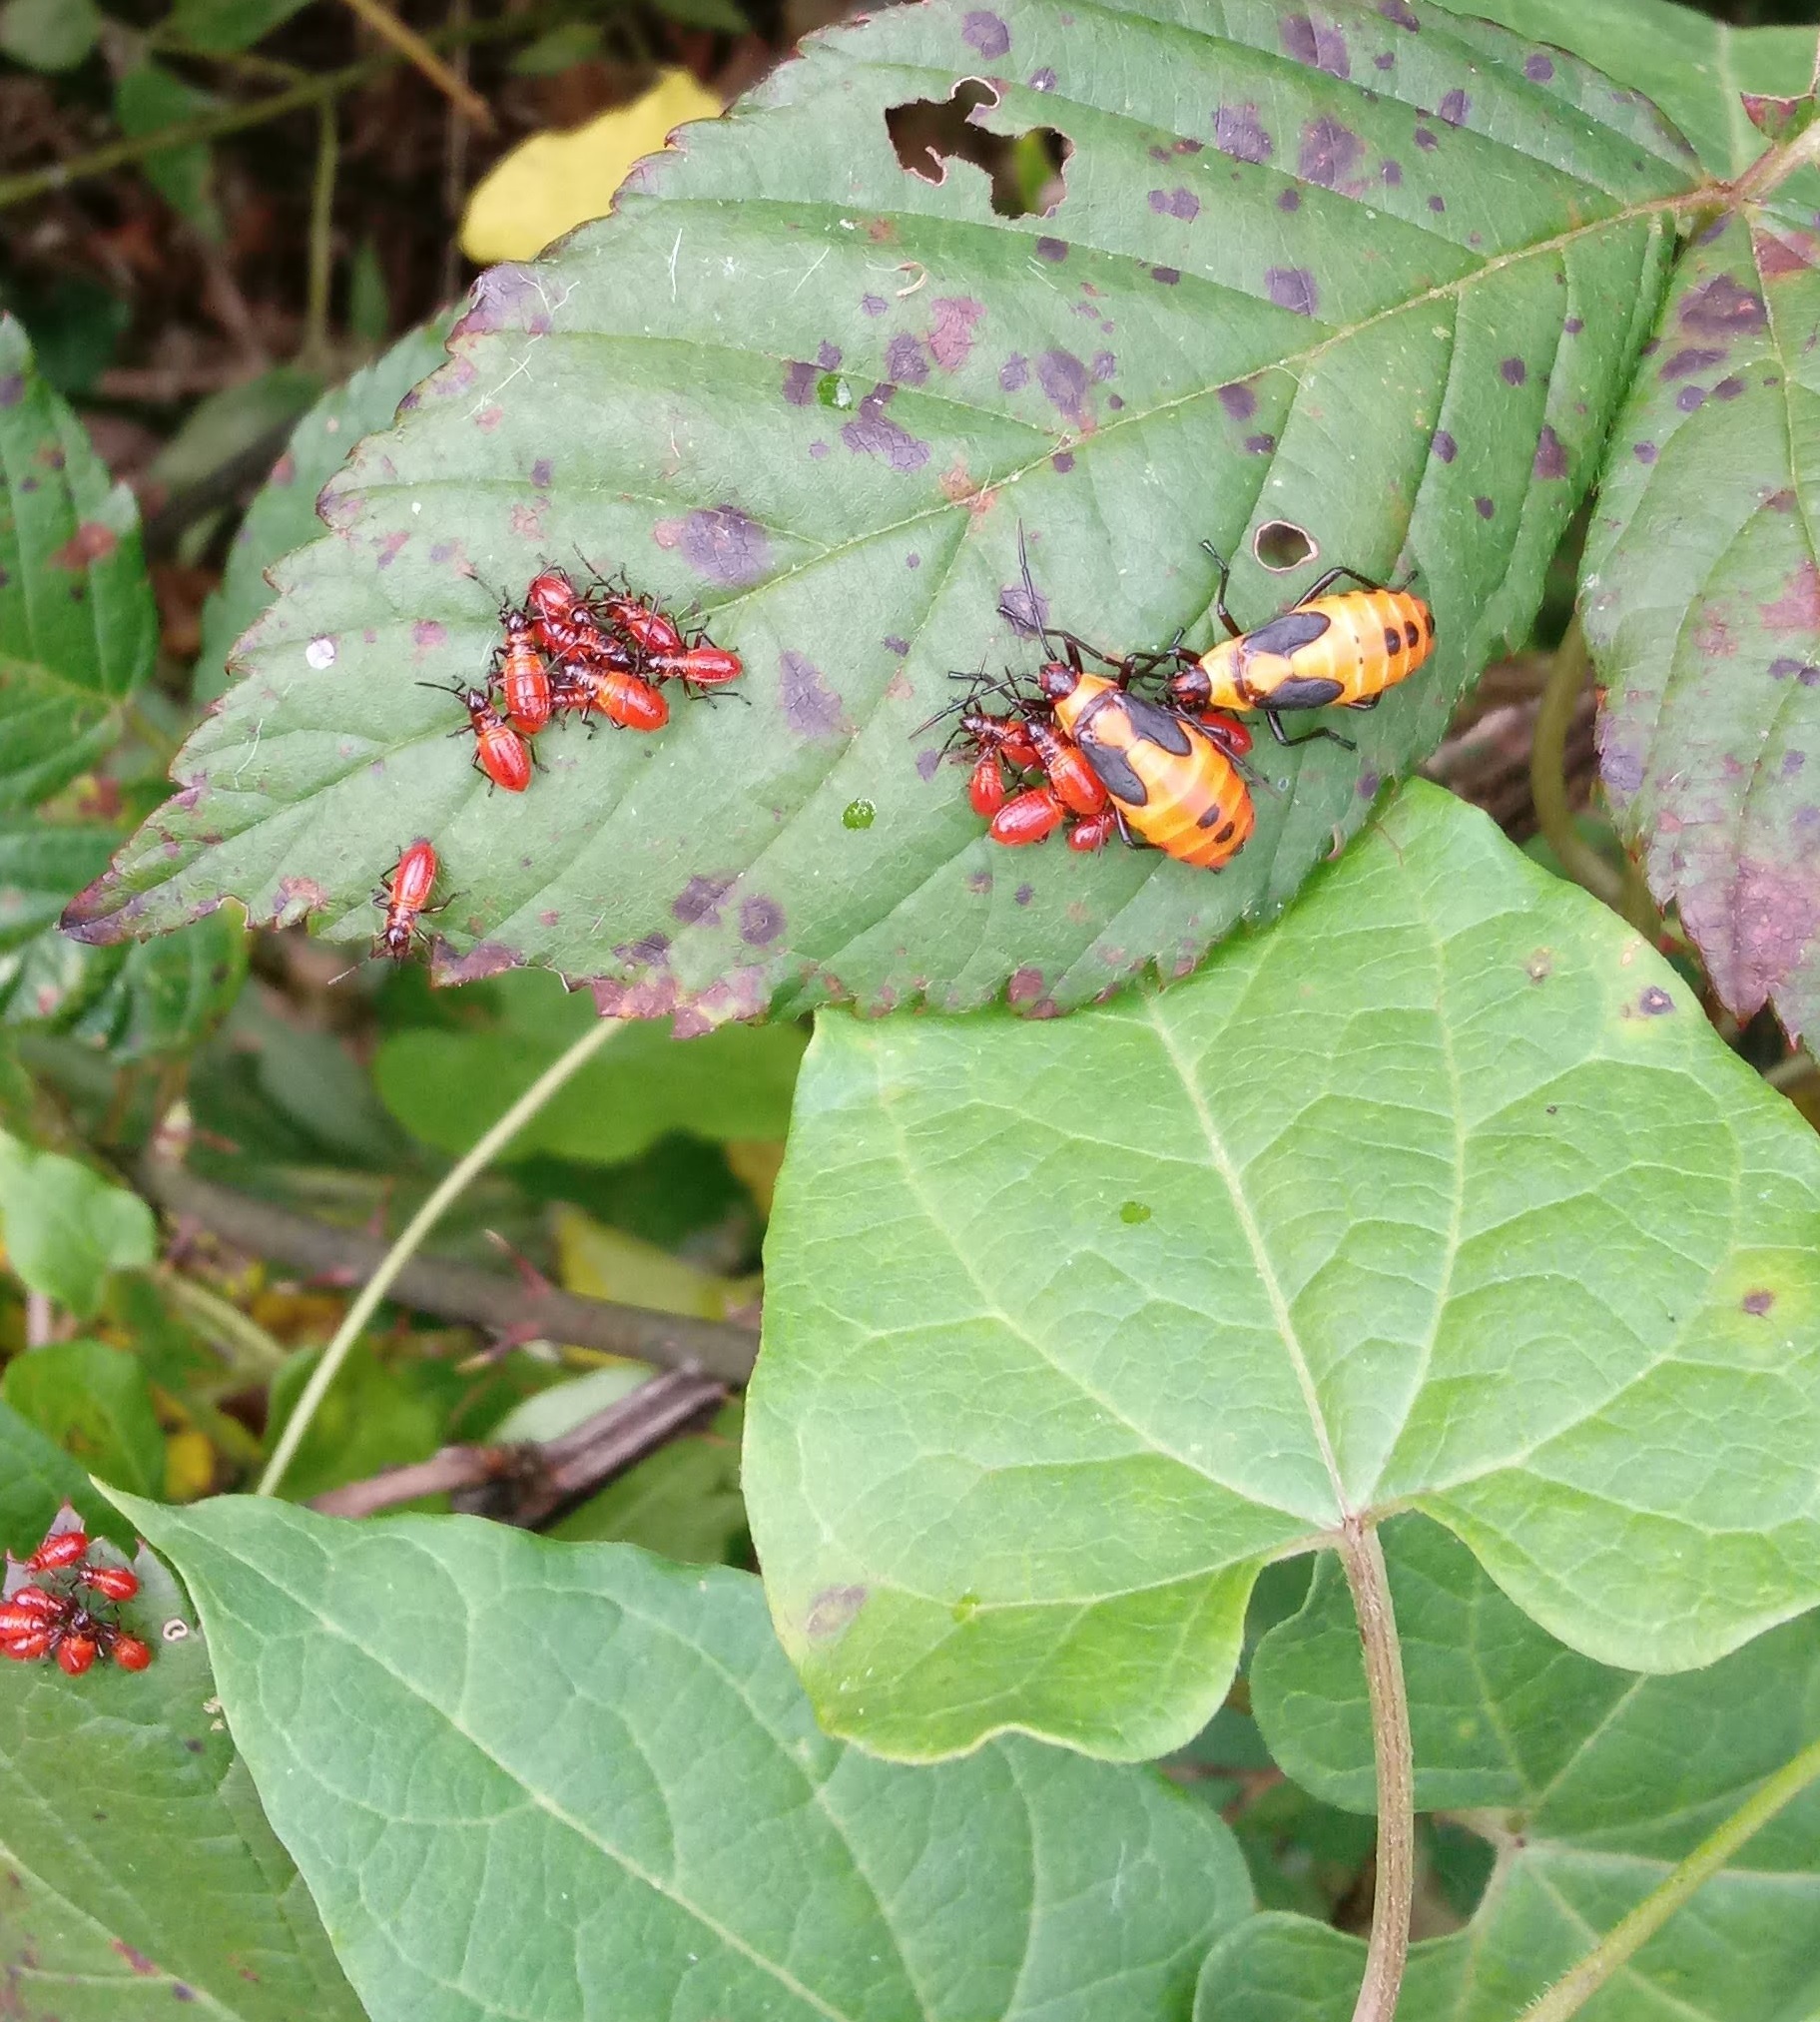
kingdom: Animalia
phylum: Arthropoda
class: Insecta
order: Hemiptera
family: Lygaeidae
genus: Oncopeltus
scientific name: Oncopeltus fasciatus
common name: Large milkweed bug
